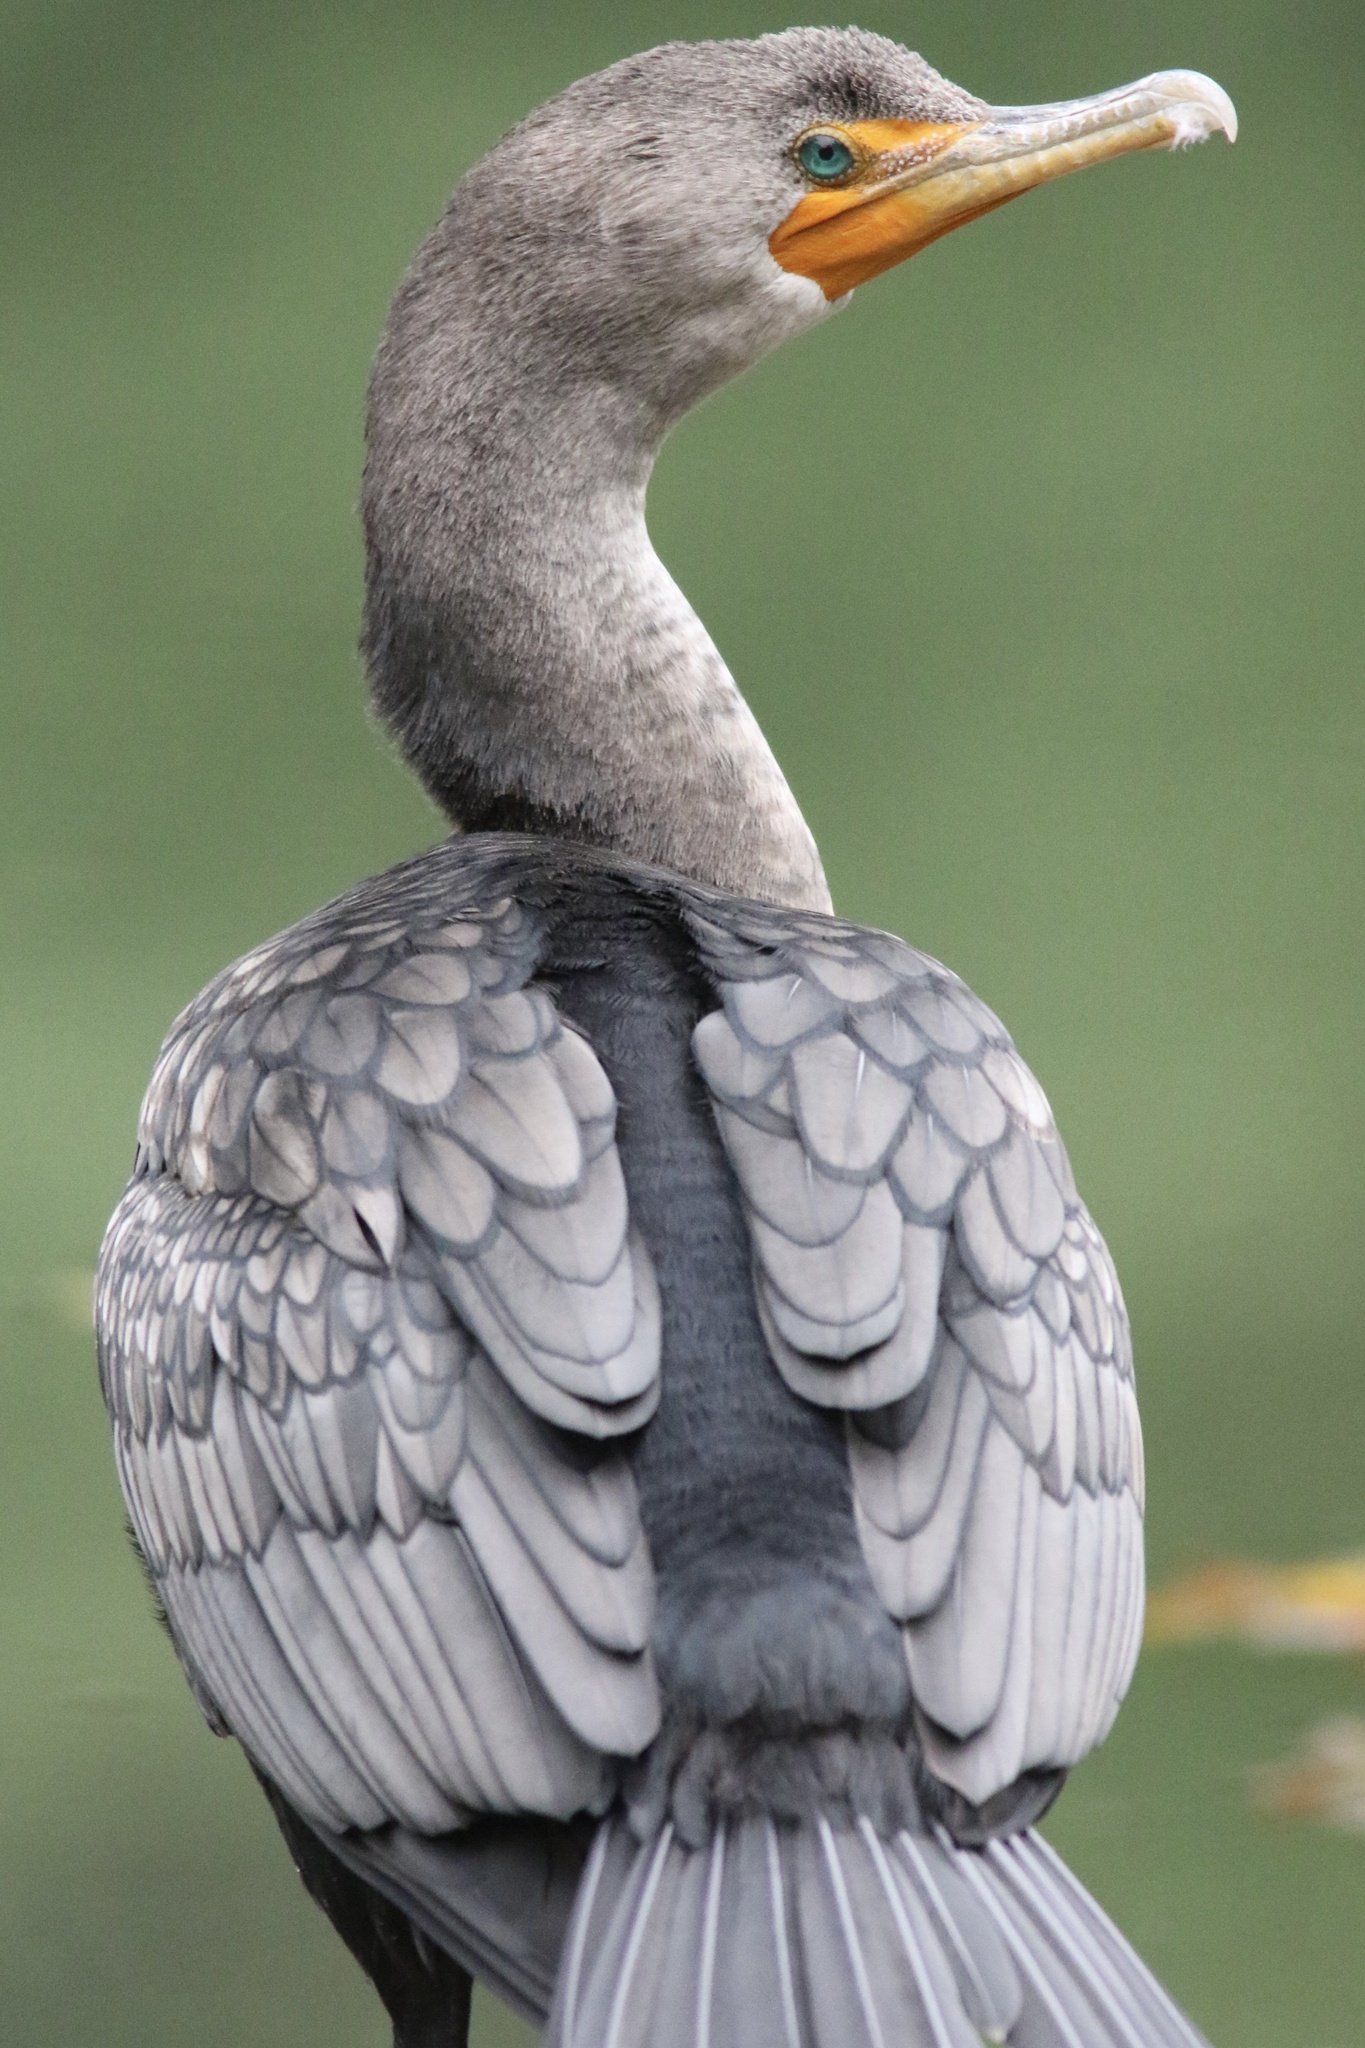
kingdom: Animalia
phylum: Chordata
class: Aves
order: Suliformes
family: Phalacrocoracidae
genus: Phalacrocorax
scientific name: Phalacrocorax auritus
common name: Double-crested cormorant
